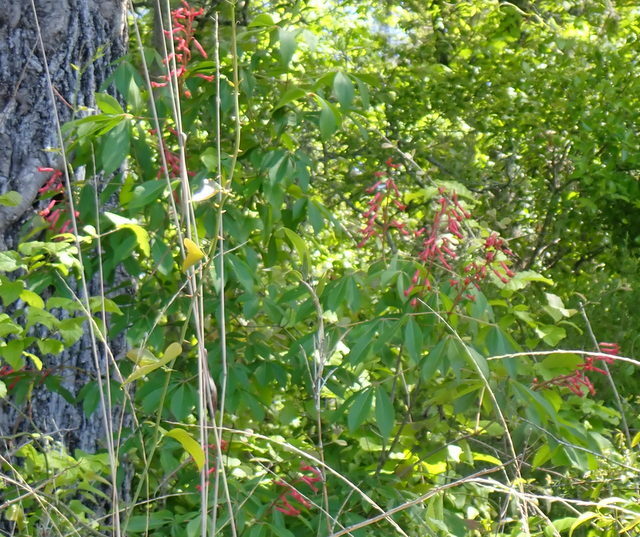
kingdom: Plantae
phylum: Tracheophyta
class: Magnoliopsida
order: Sapindales
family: Sapindaceae
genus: Aesculus
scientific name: Aesculus pavia
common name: Red buckeye
